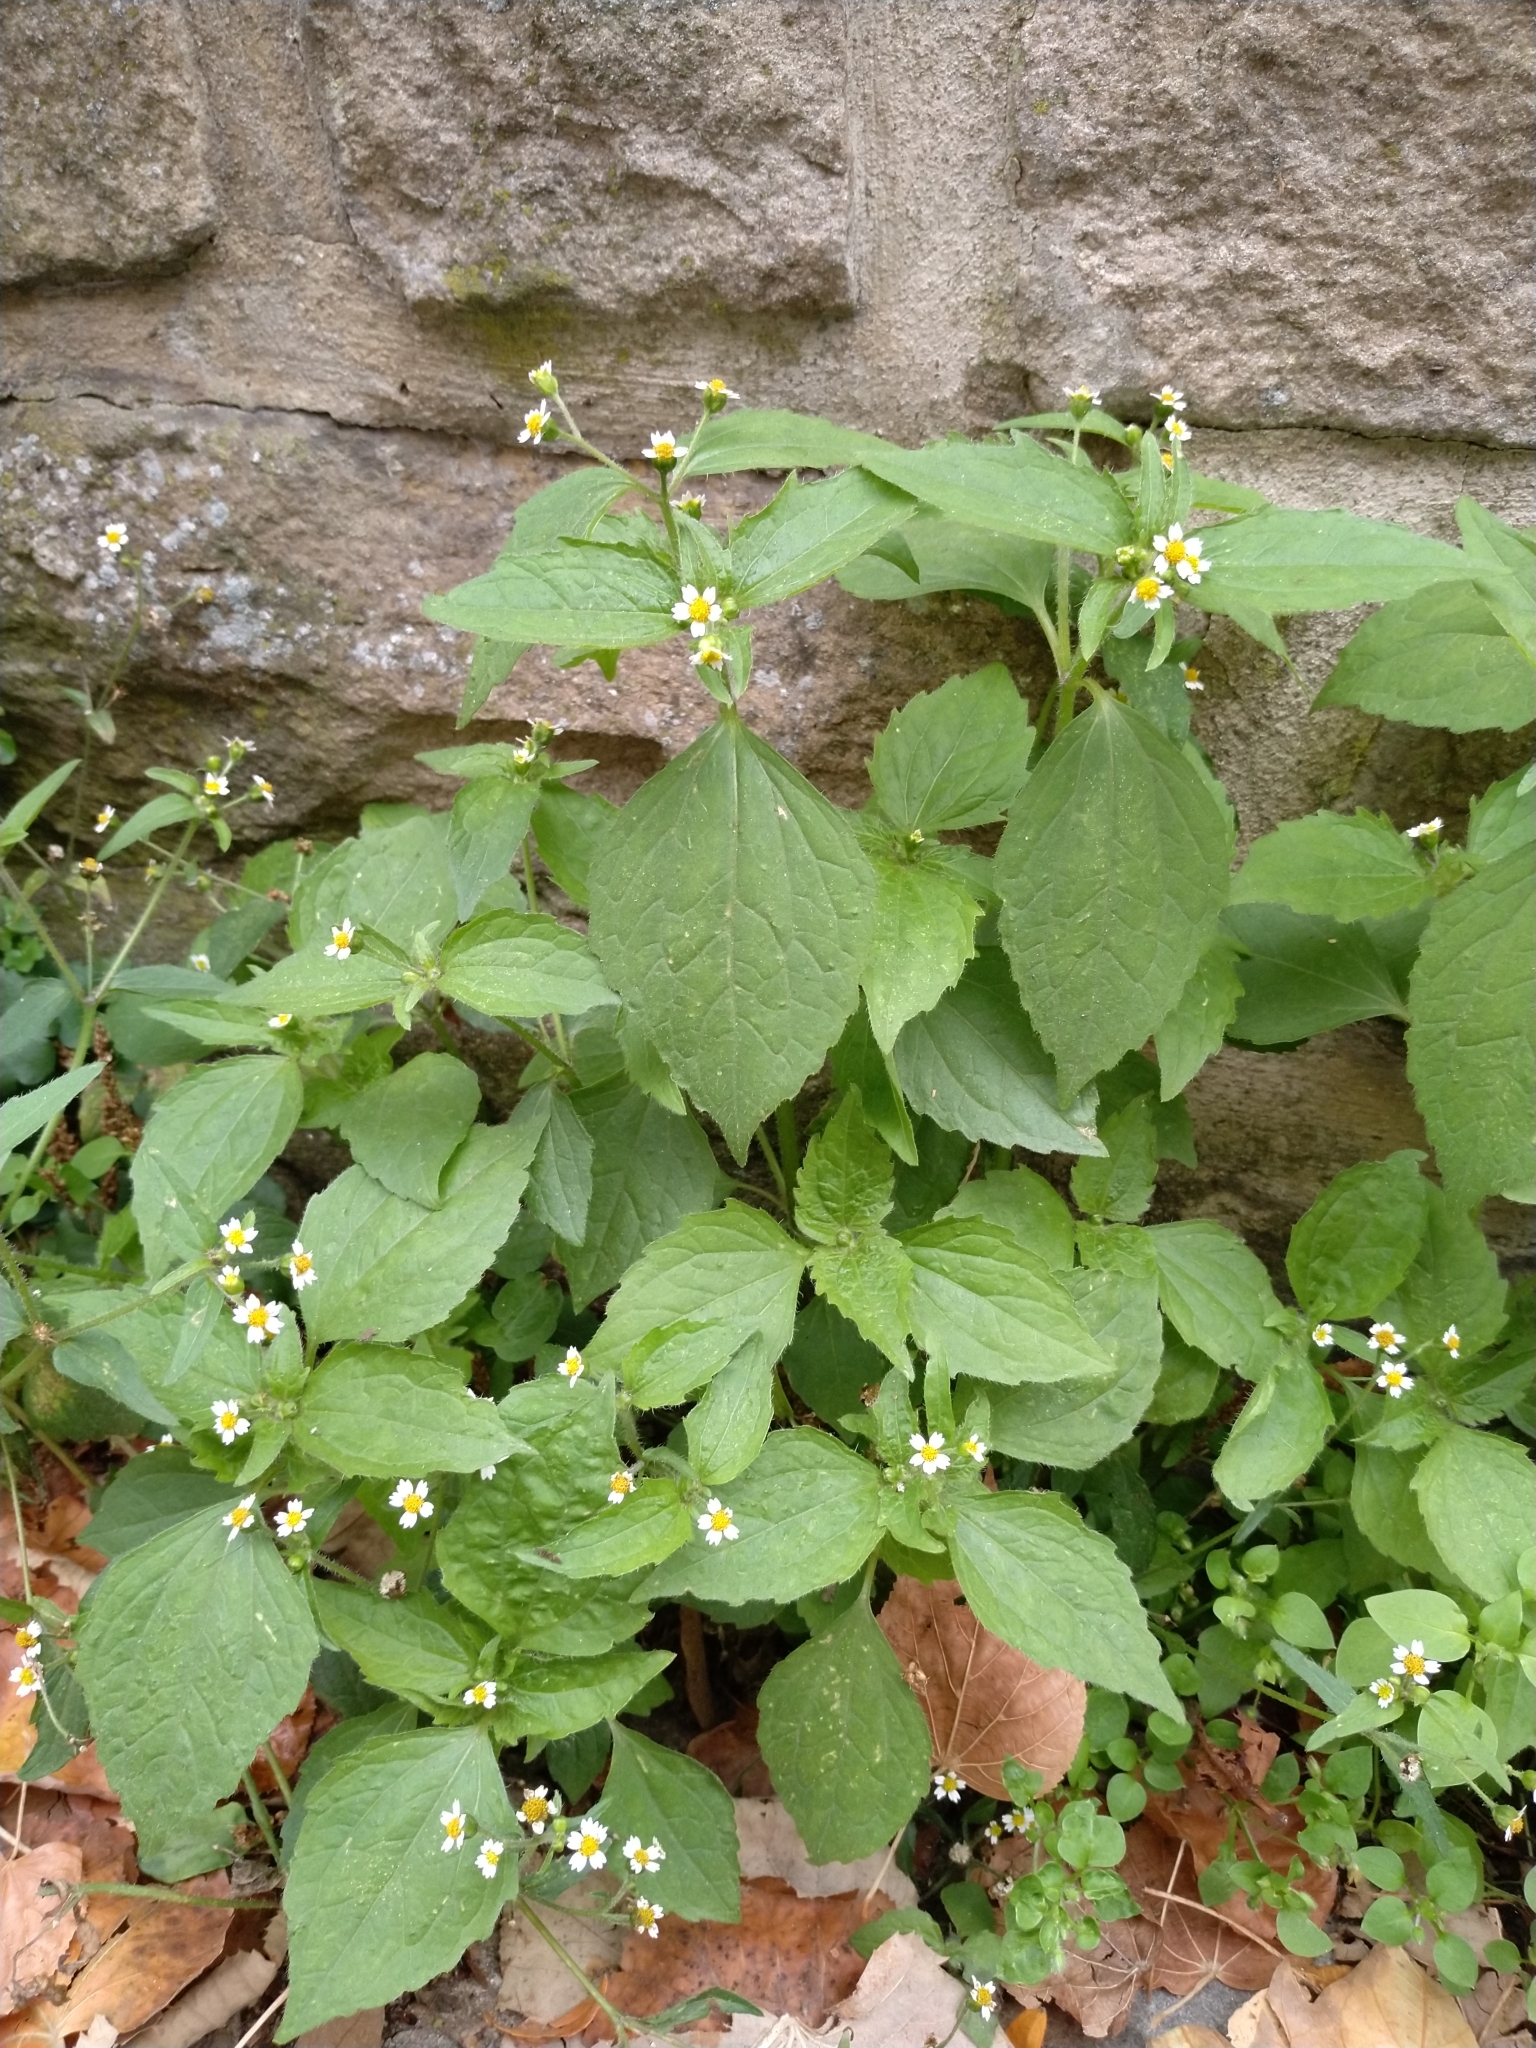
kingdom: Plantae
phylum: Tracheophyta
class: Magnoliopsida
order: Asterales
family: Asteraceae
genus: Galinsoga
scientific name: Galinsoga quadriradiata
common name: Shaggy soldier
